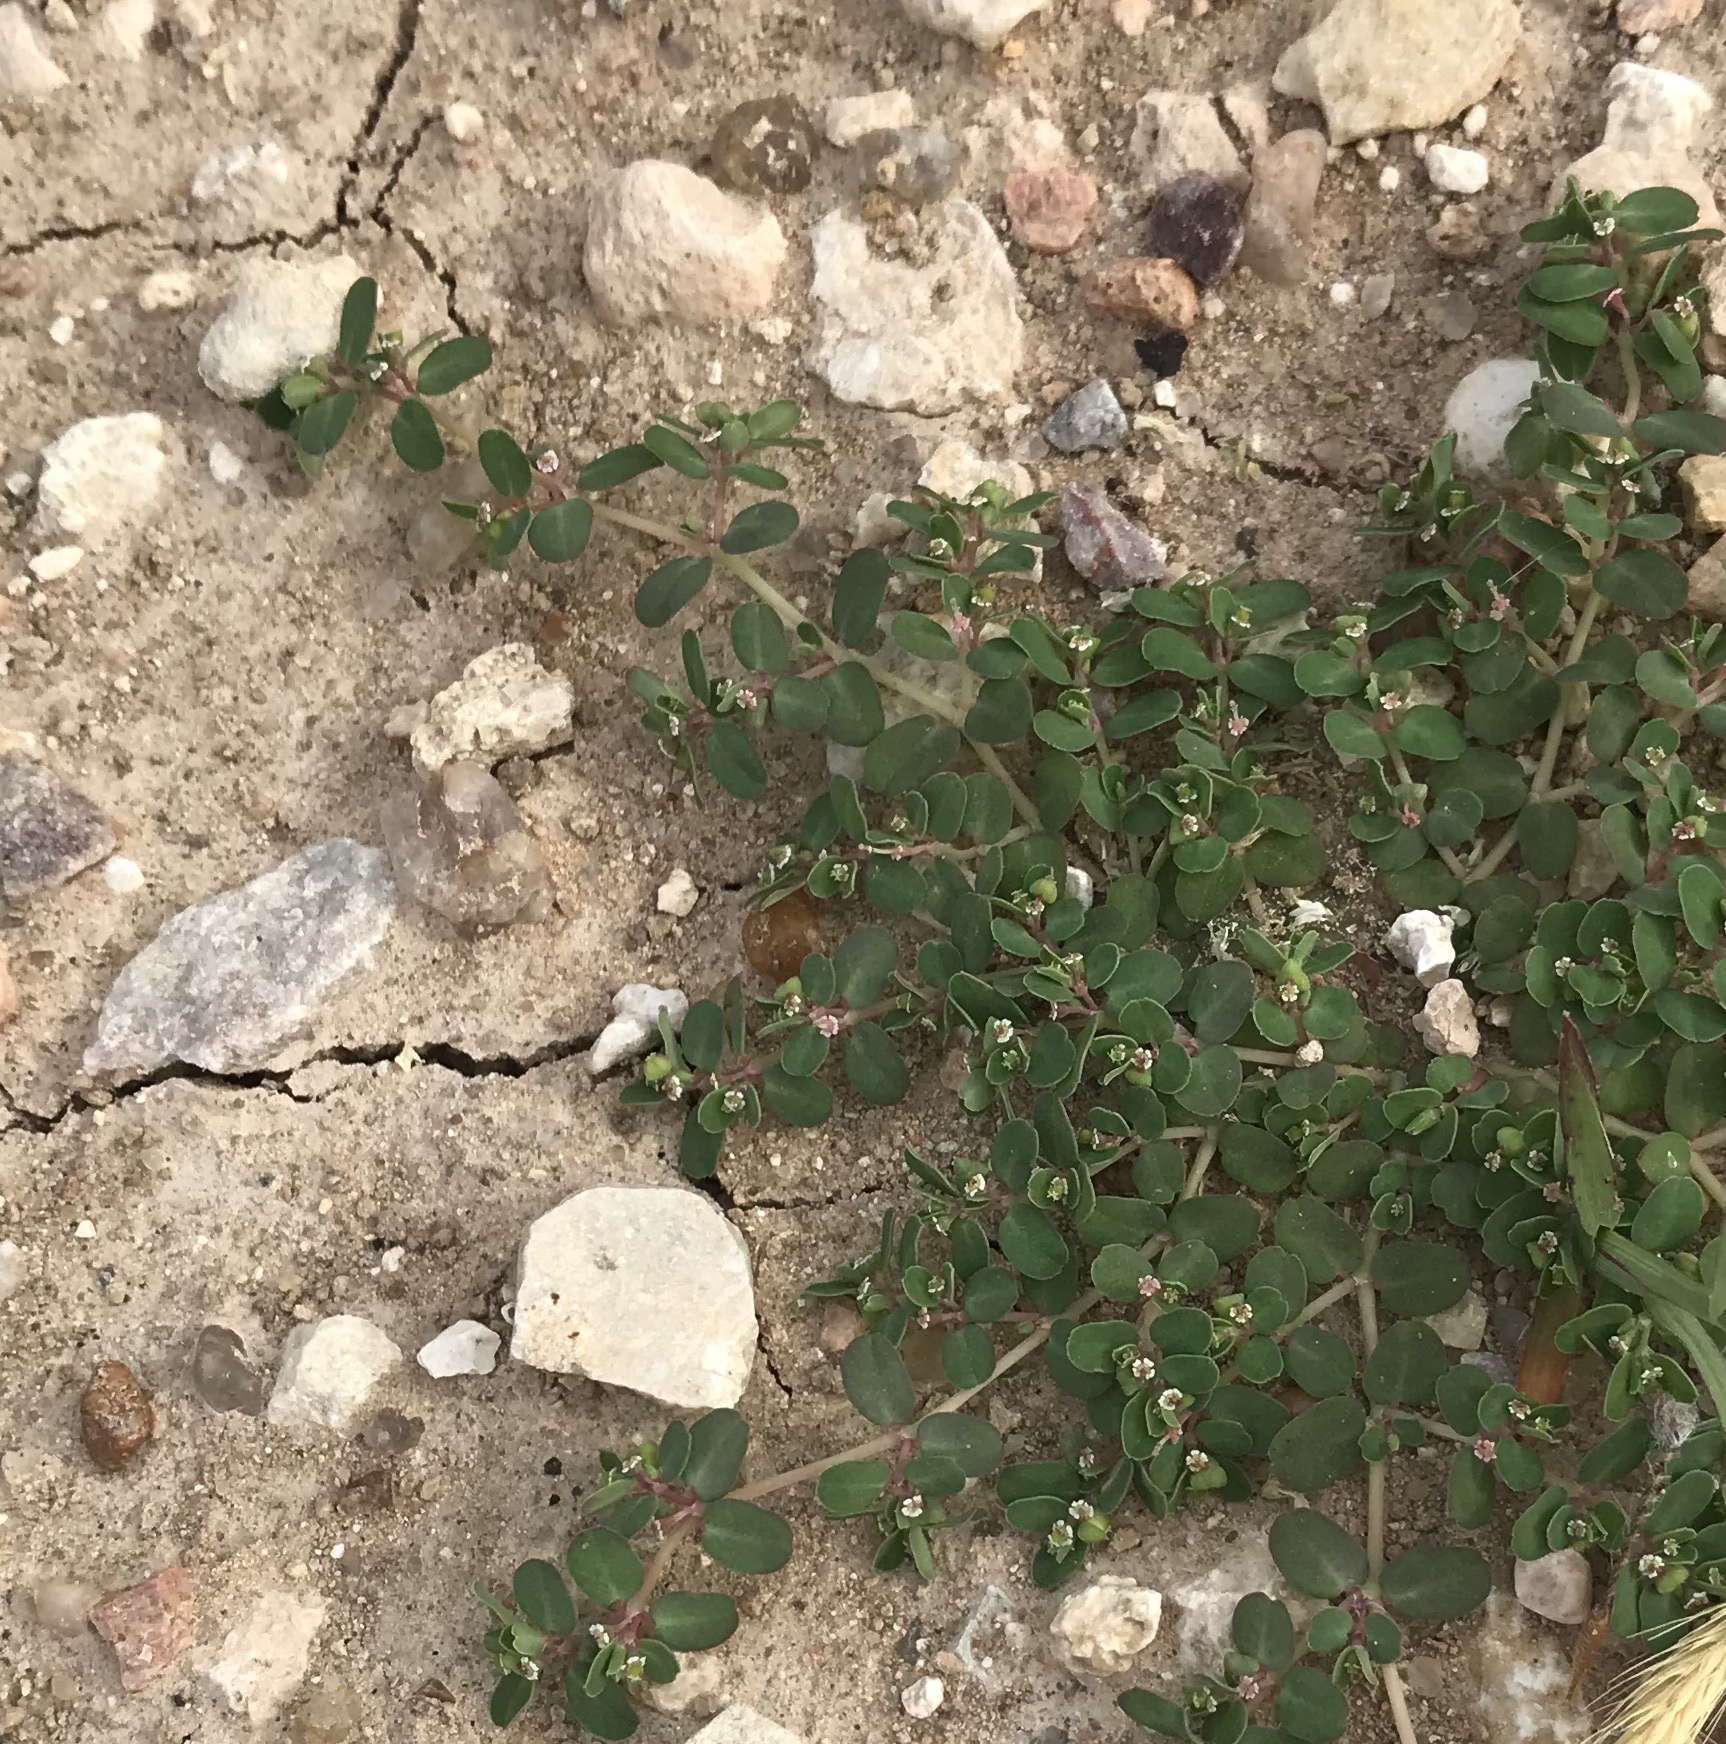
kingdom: Plantae
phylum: Tracheophyta
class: Magnoliopsida
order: Malpighiales
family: Euphorbiaceae
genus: Euphorbia
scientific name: Euphorbia serpens
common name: Matted sandmat
